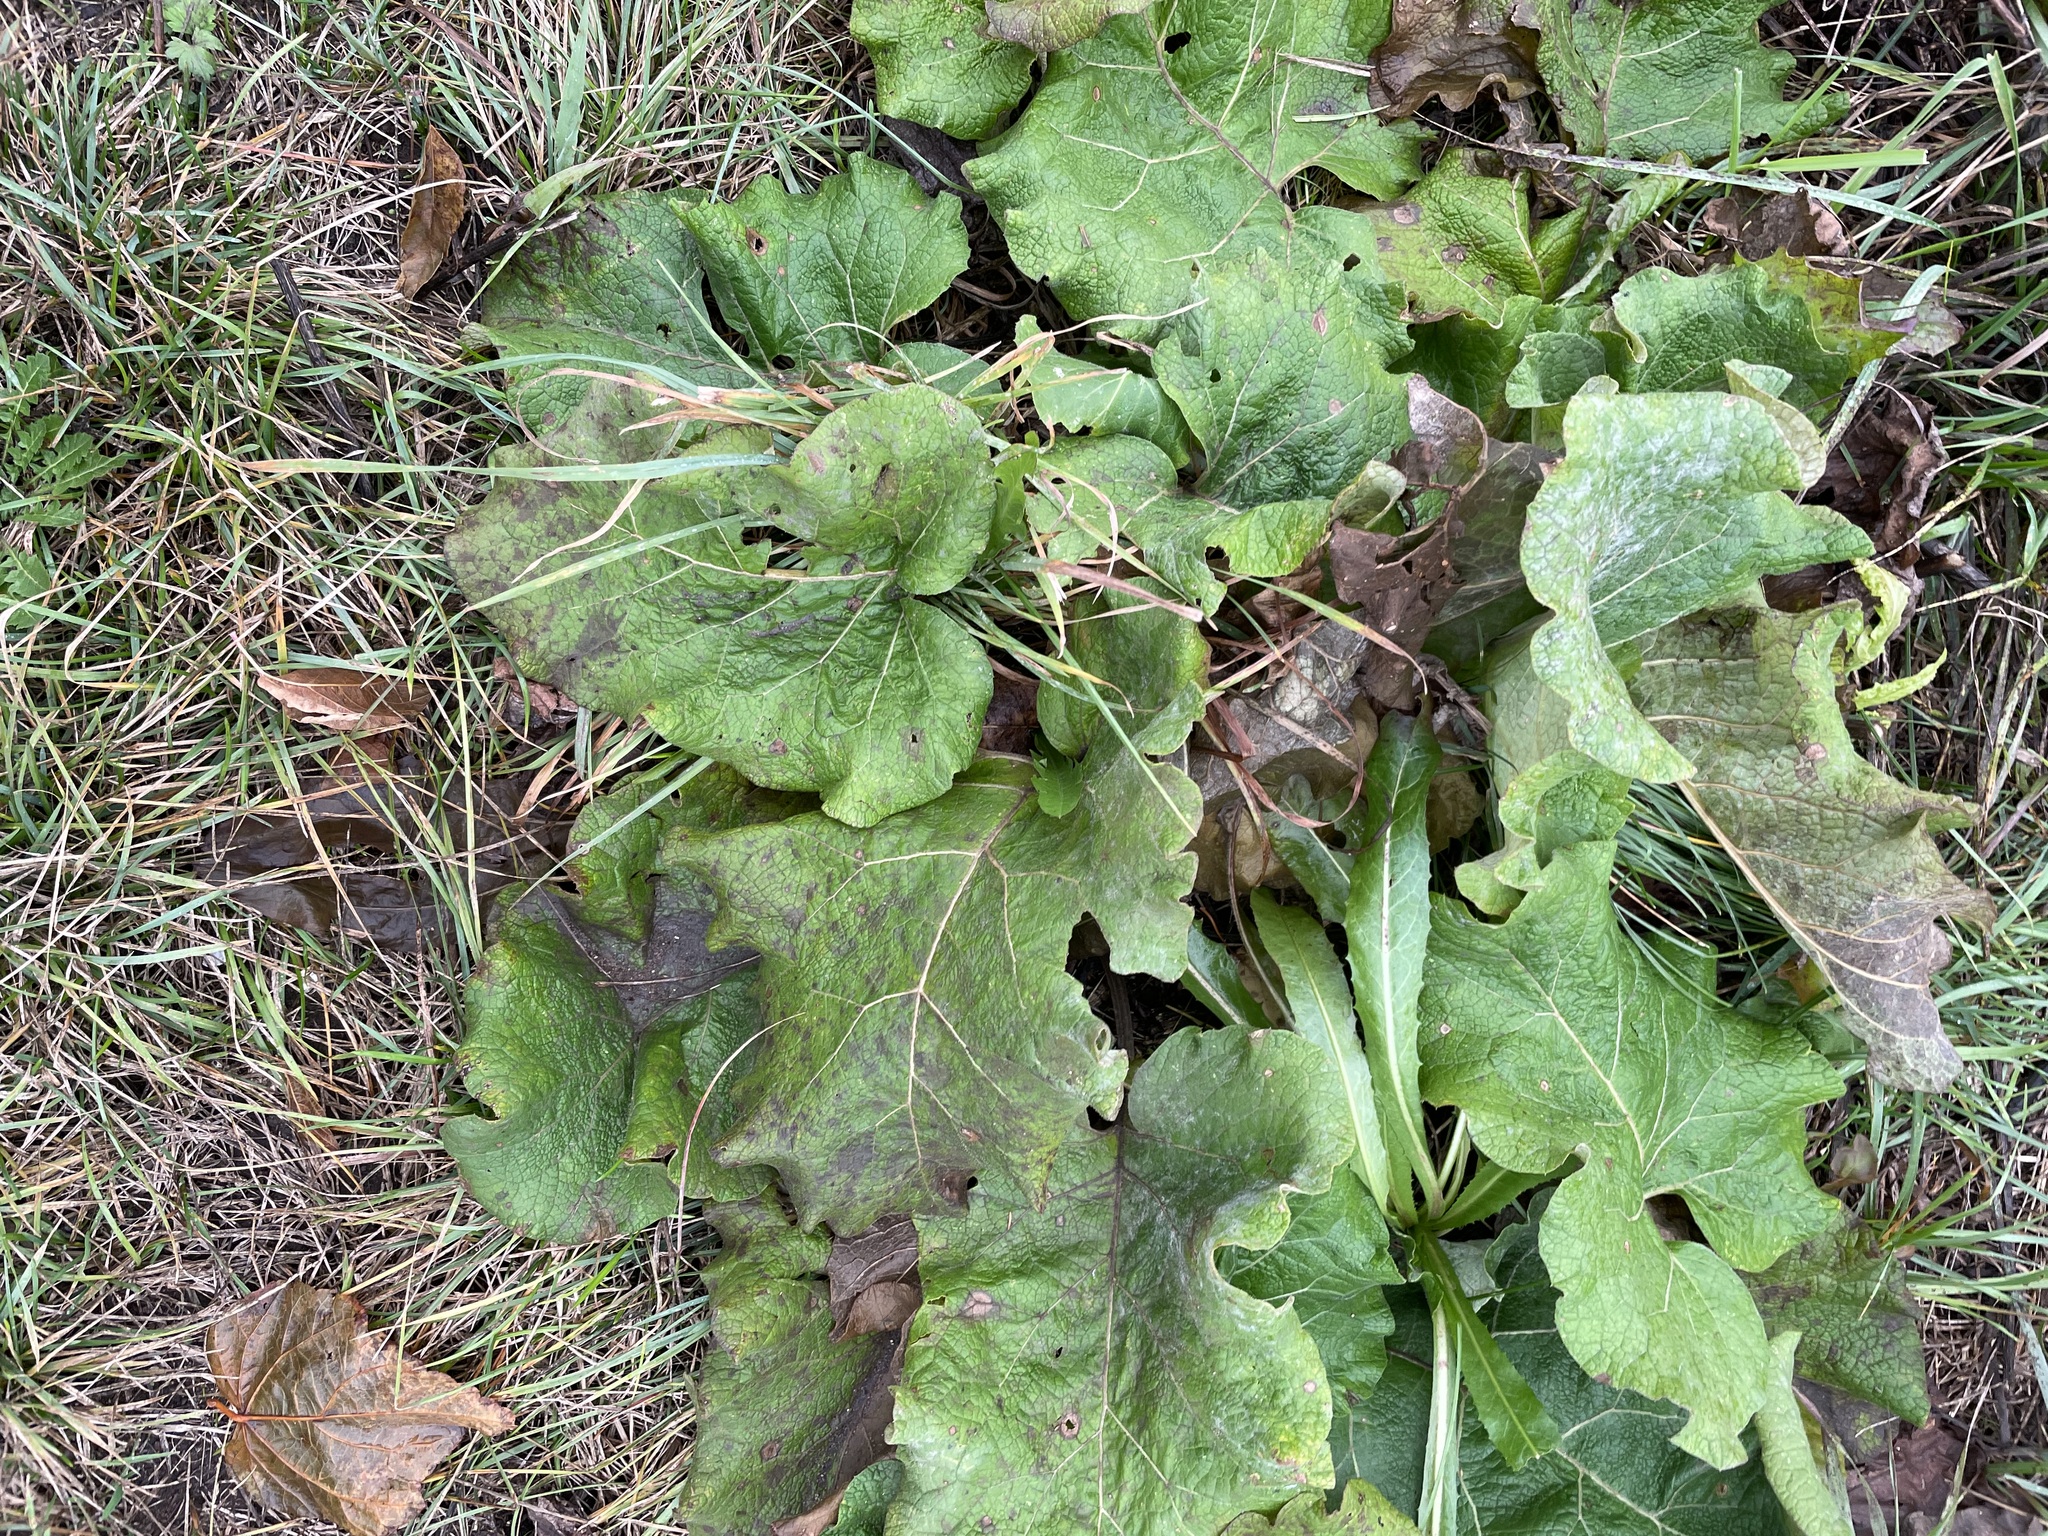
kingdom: Plantae
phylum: Tracheophyta
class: Magnoliopsida
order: Asterales
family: Asteraceae
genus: Arctium
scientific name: Arctium
